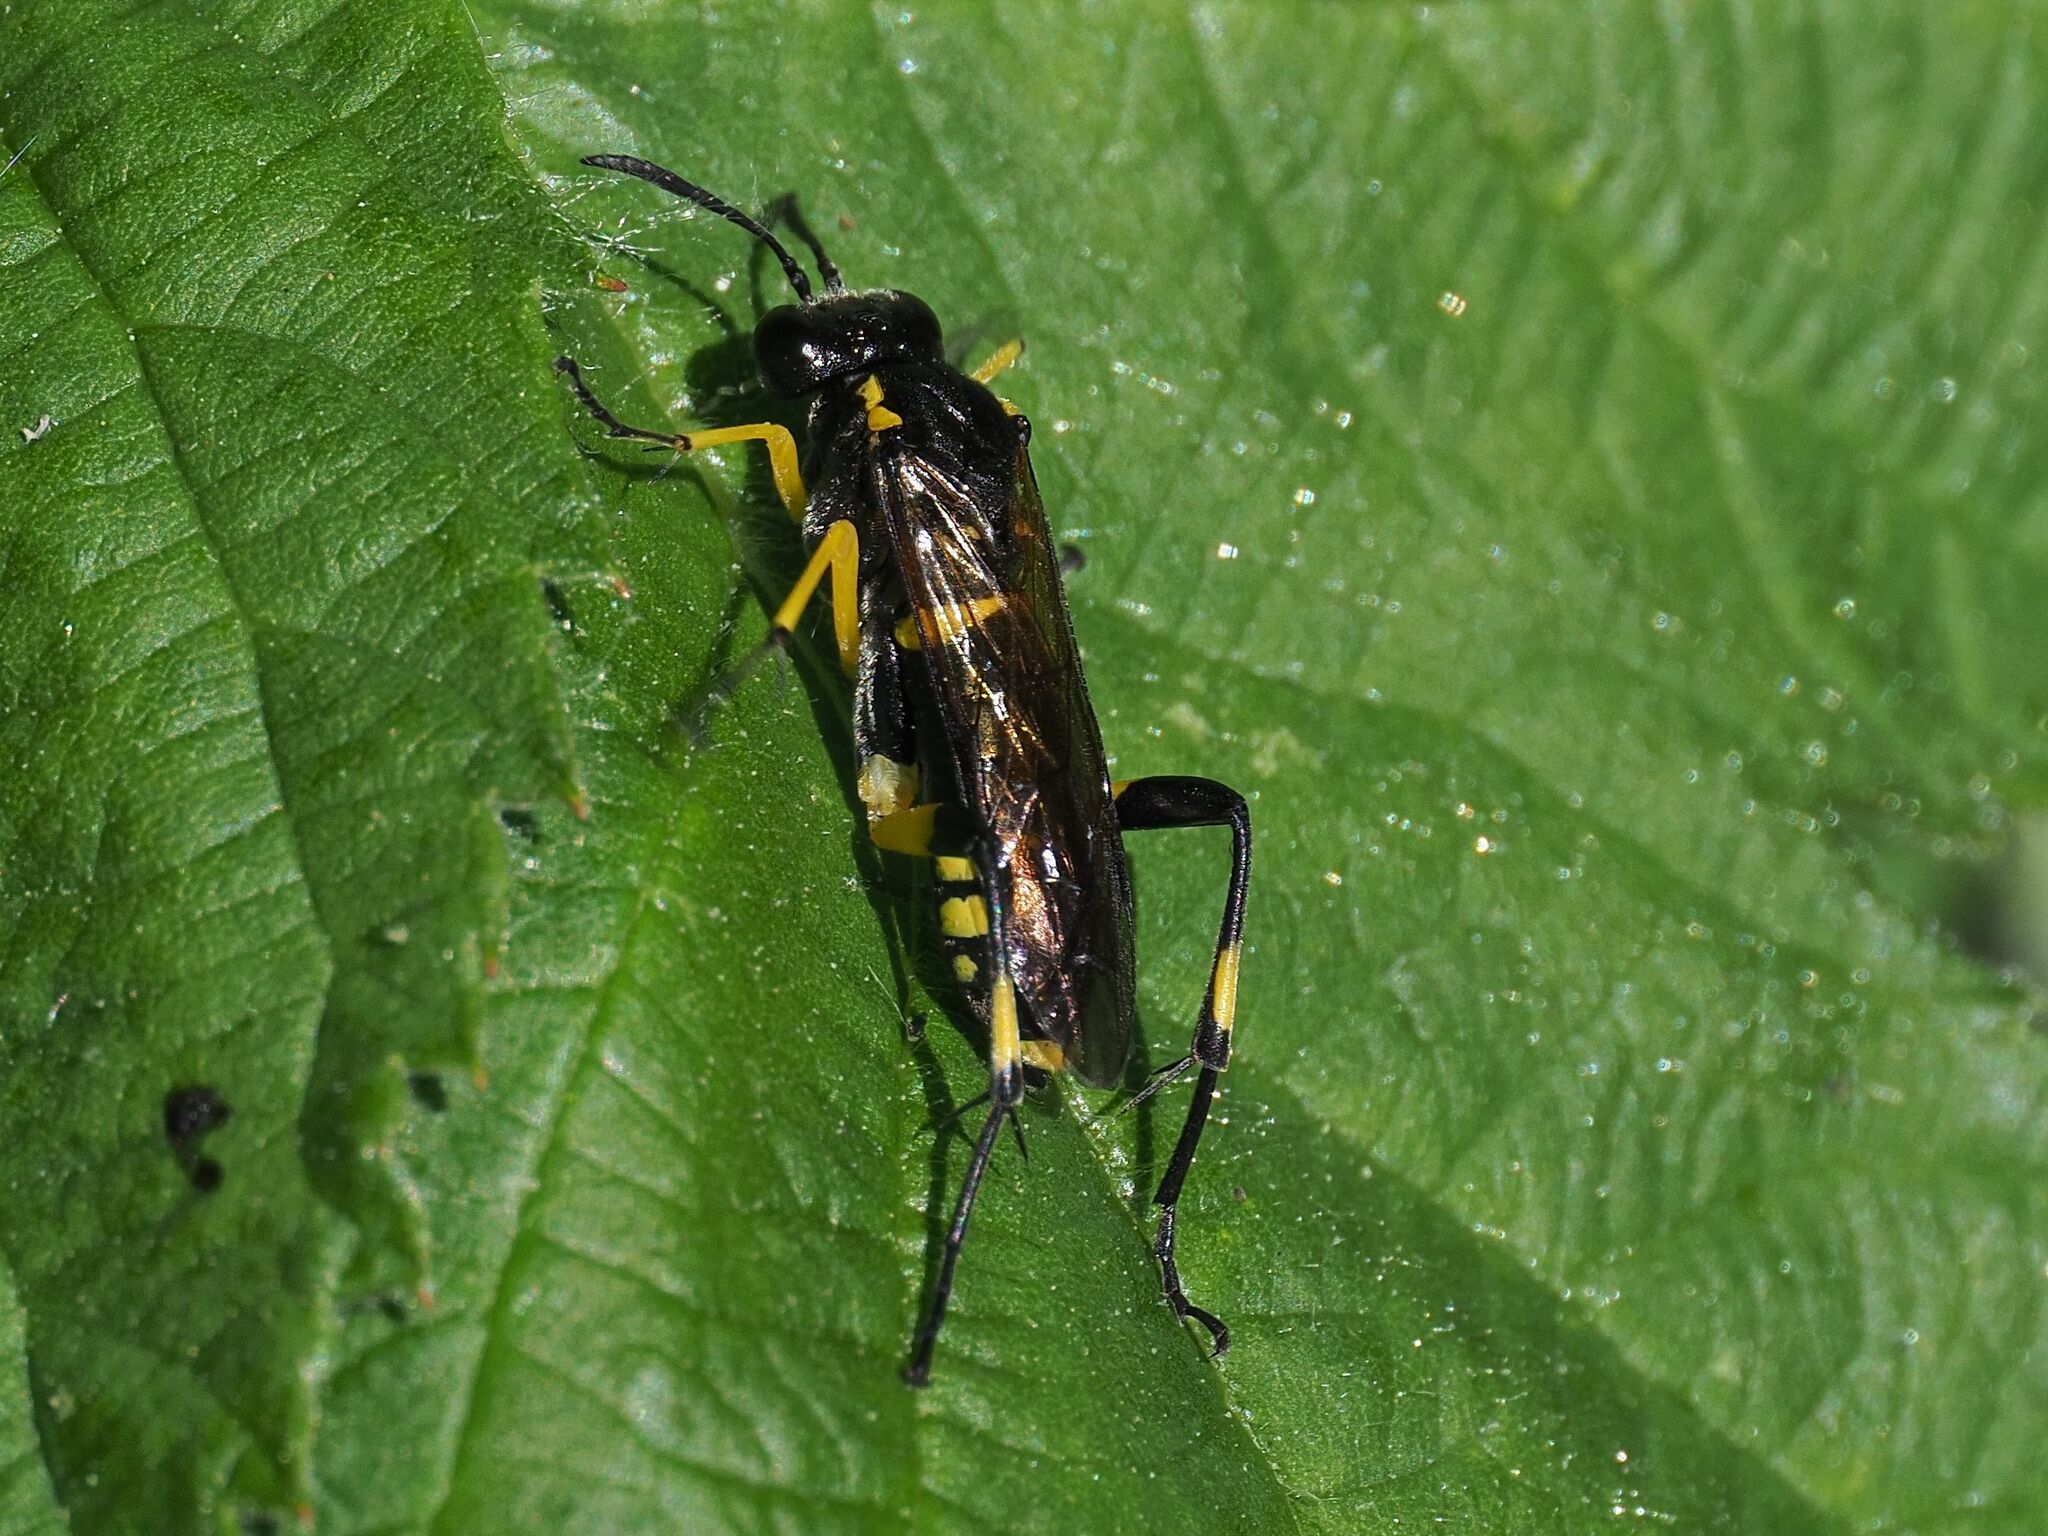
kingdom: Animalia
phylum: Arthropoda
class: Insecta
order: Hymenoptera
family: Tenthredinidae
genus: Macrophya
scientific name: Macrophya montana
